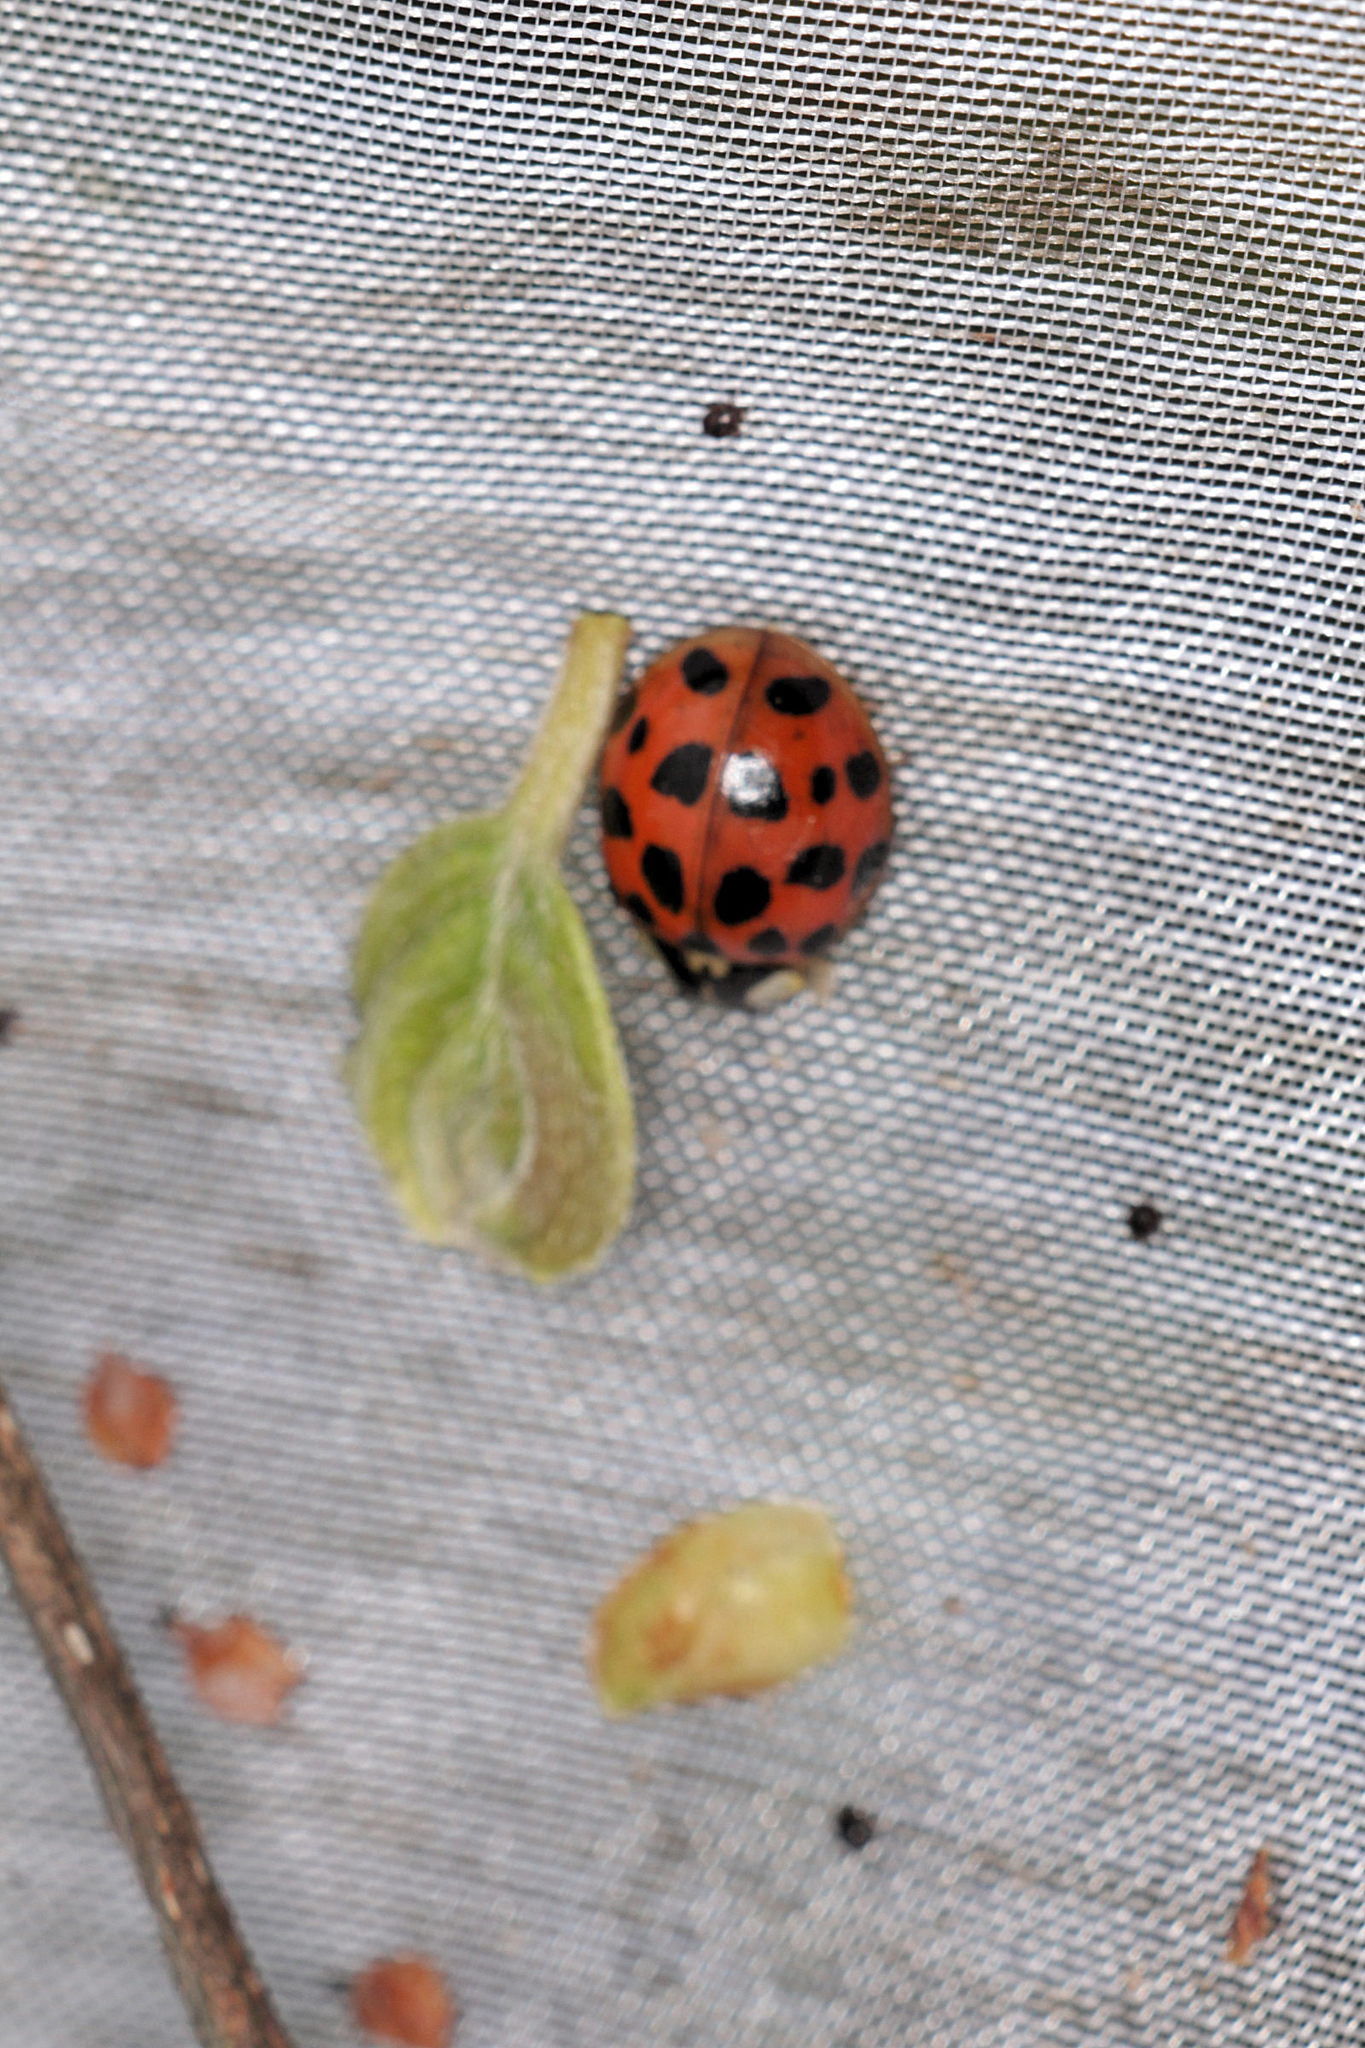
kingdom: Animalia
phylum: Arthropoda
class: Insecta
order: Coleoptera
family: Coccinellidae
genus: Harmonia
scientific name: Harmonia axyridis
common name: Harlequin ladybird
